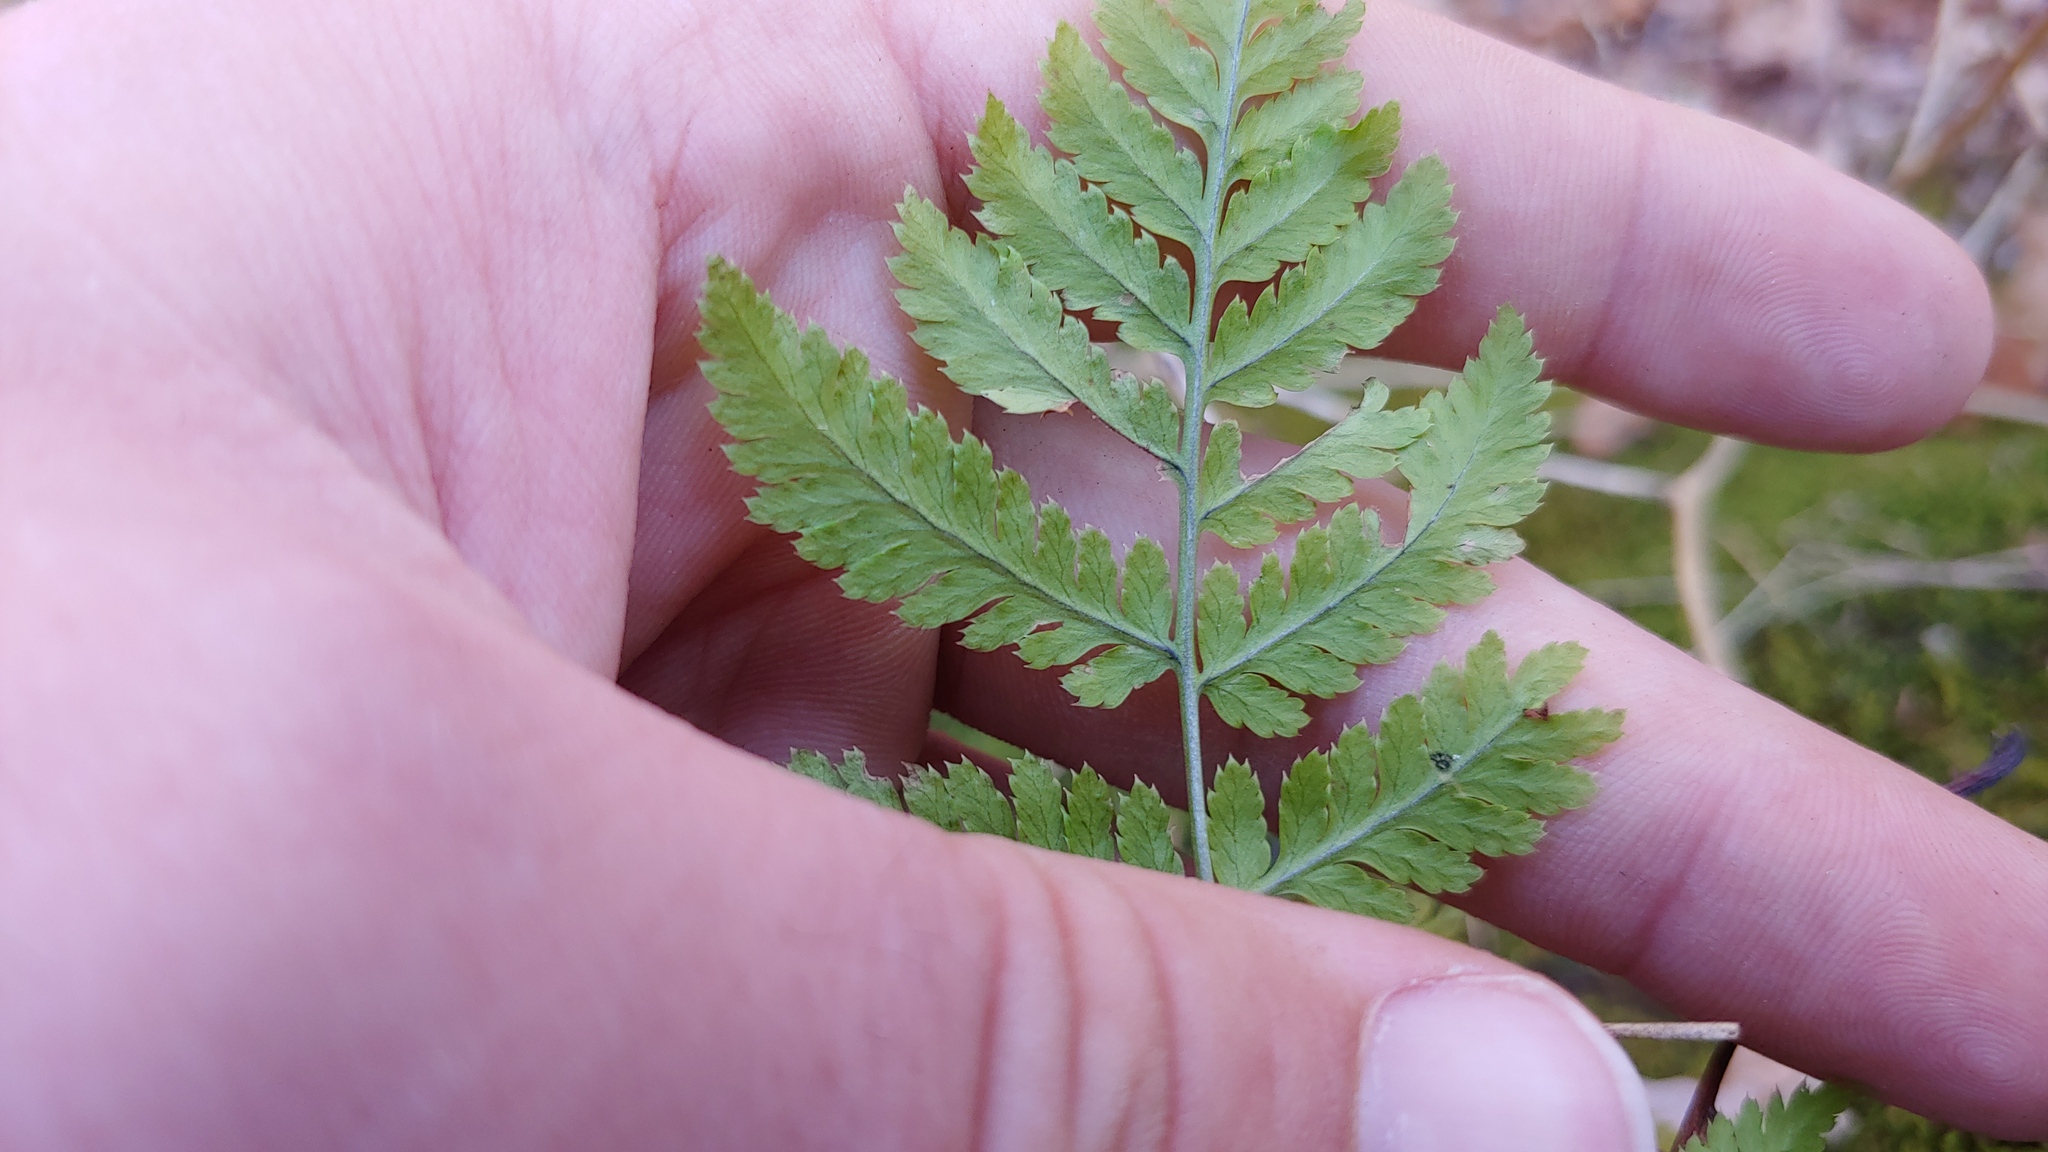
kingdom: Plantae
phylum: Tracheophyta
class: Polypodiopsida
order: Polypodiales
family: Dryopteridaceae
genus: Dryopteris
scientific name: Dryopteris carthusiana
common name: Narrow buckler-fern
